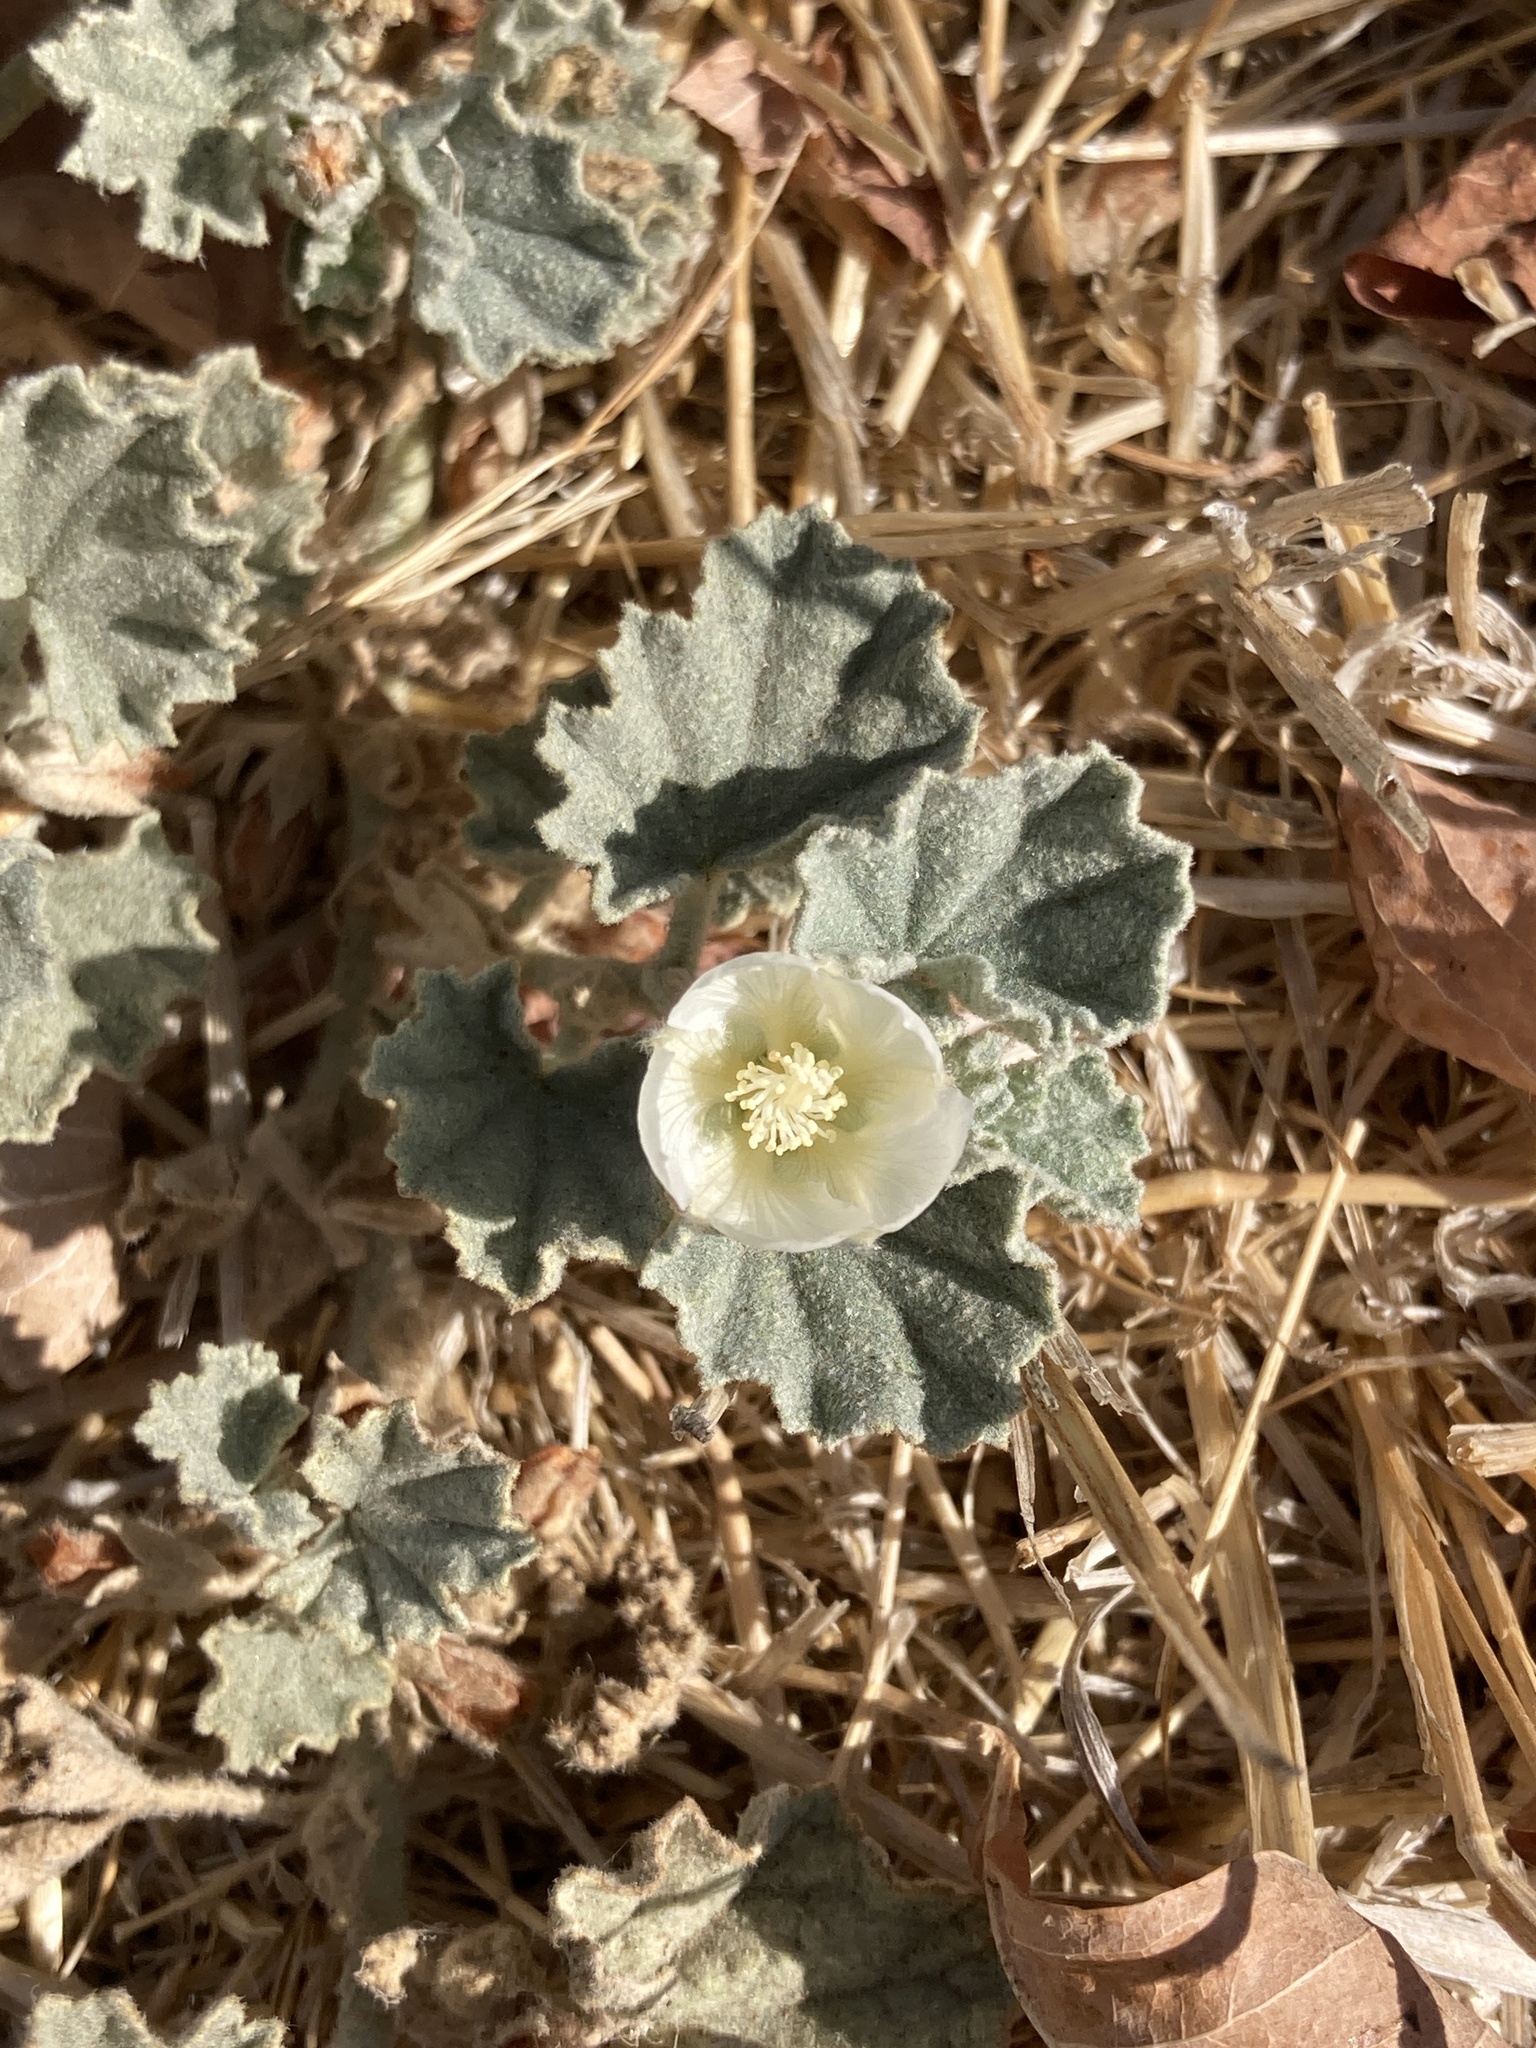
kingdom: Plantae
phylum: Tracheophyta
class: Magnoliopsida
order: Malvales
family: Malvaceae
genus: Malvella
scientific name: Malvella leprosa
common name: Alkali-mallow
